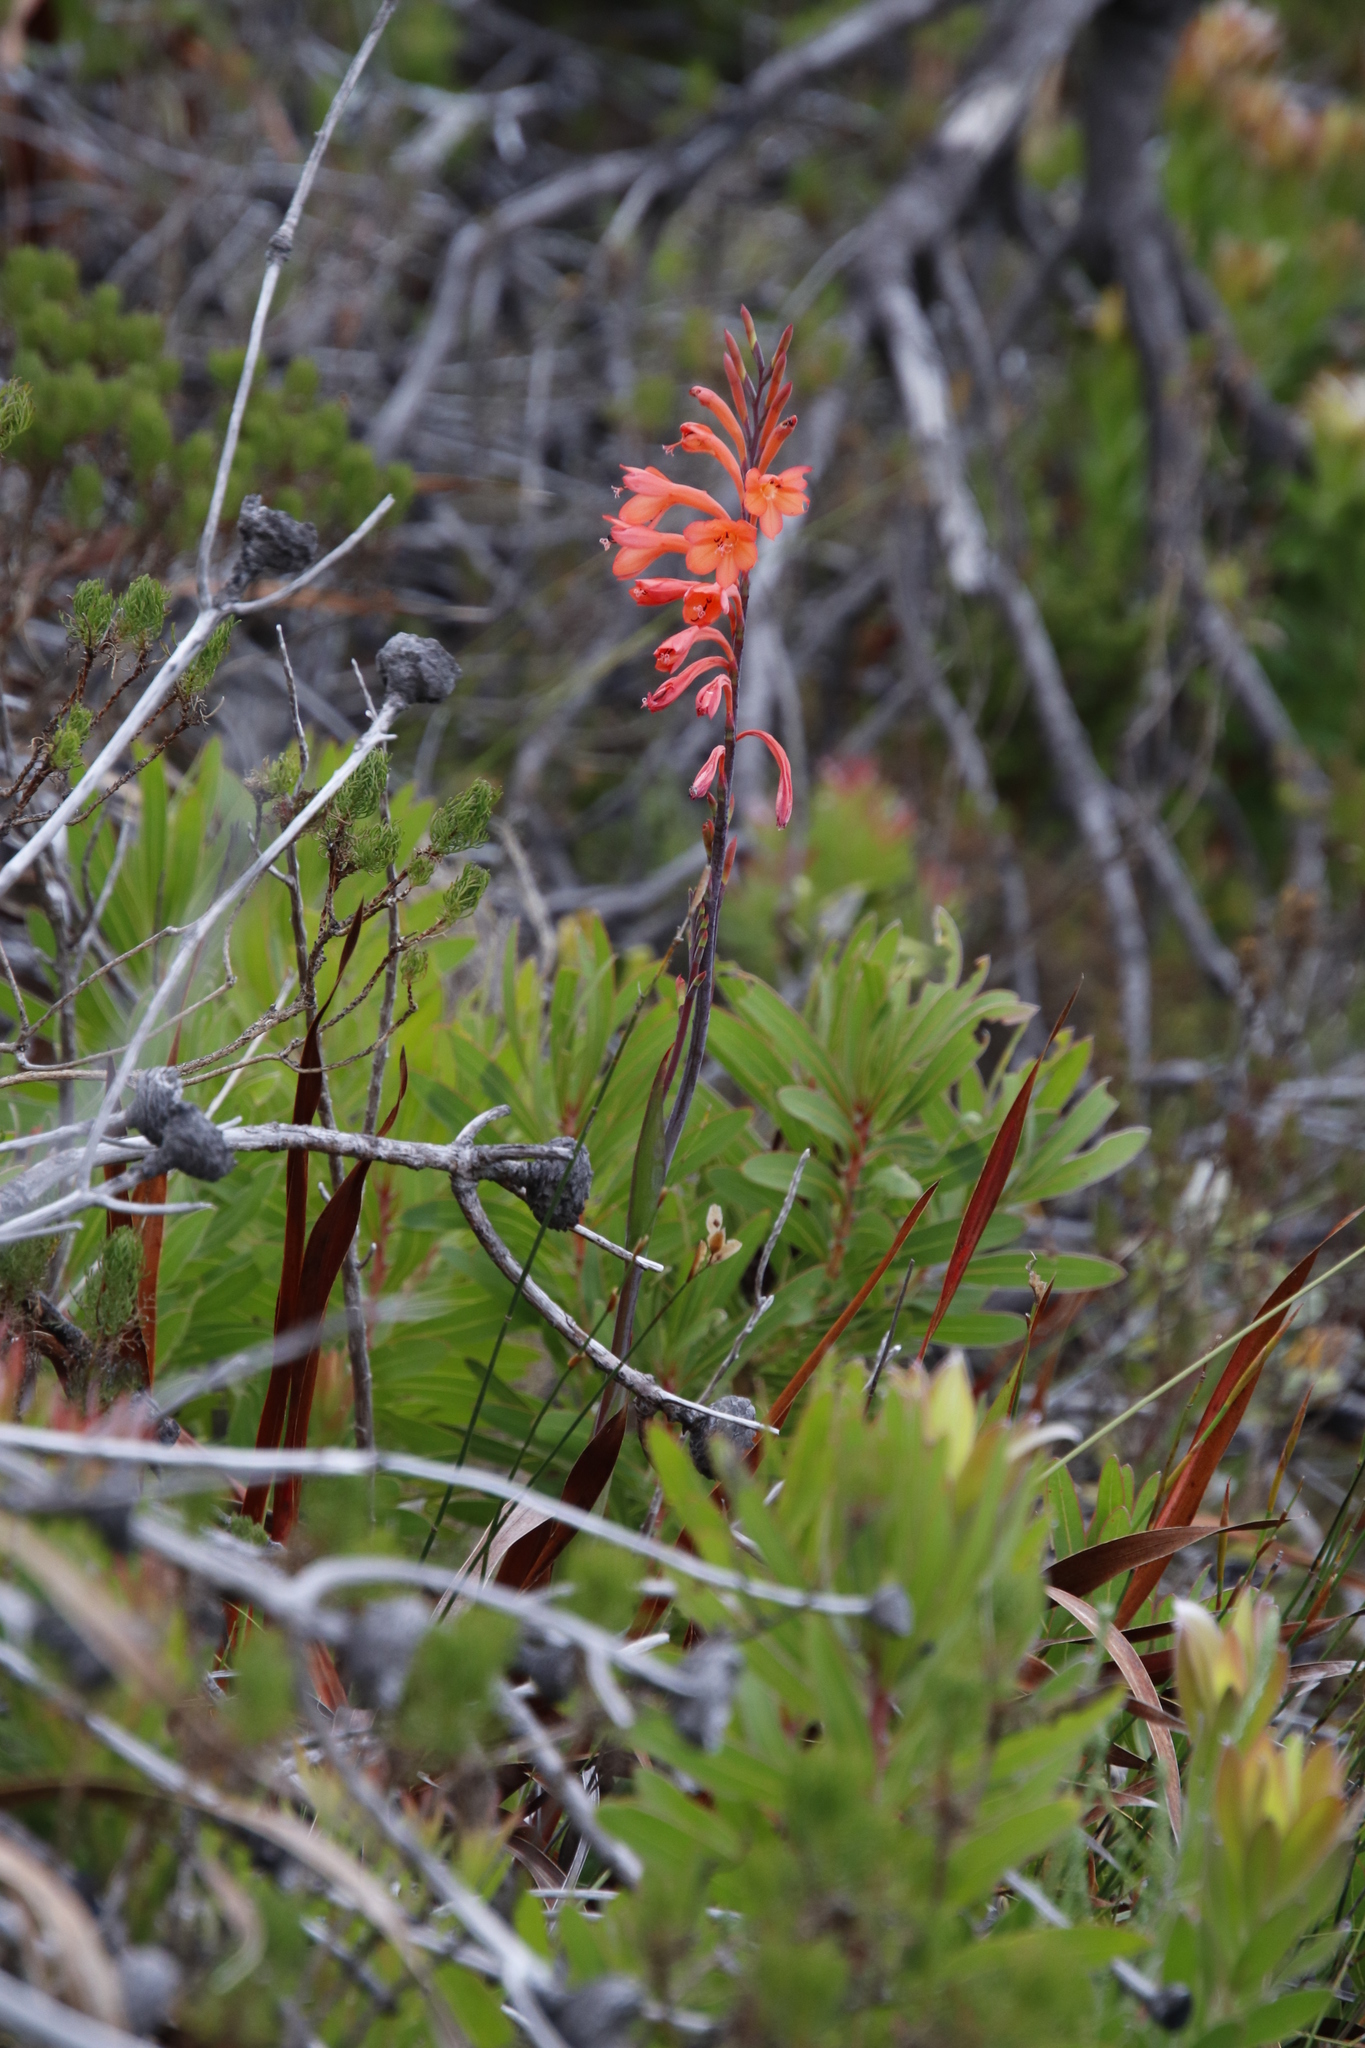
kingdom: Plantae
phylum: Tracheophyta
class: Liliopsida
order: Asparagales
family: Iridaceae
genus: Watsonia
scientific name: Watsonia tabularis
